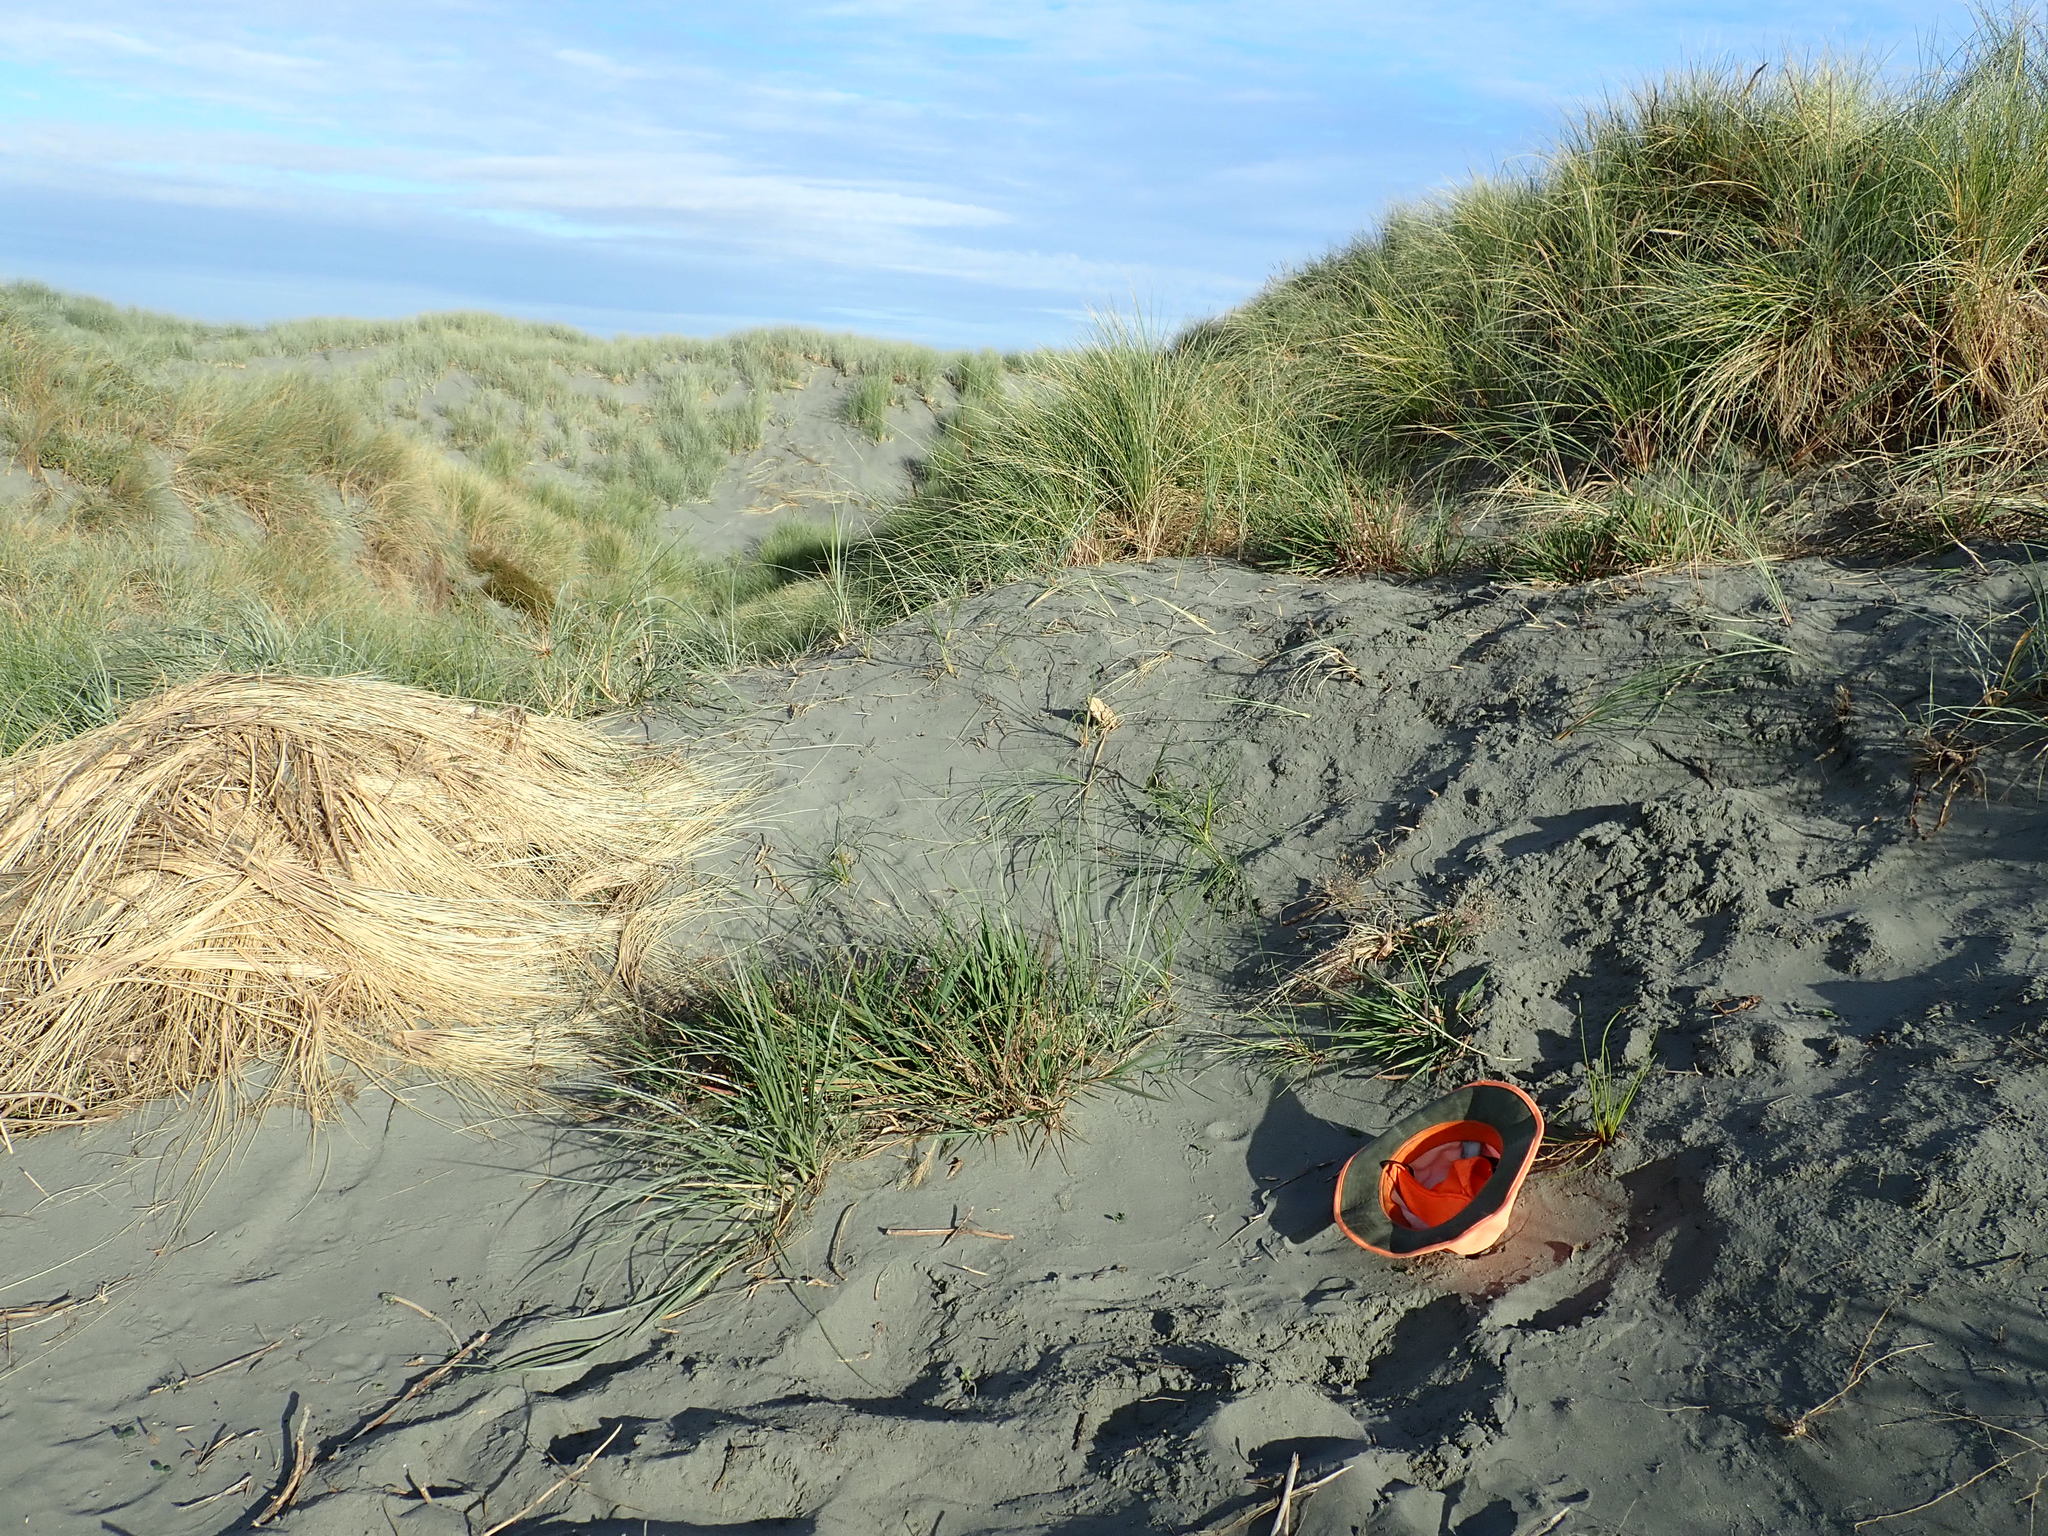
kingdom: Plantae
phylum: Tracheophyta
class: Liliopsida
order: Poales
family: Cyperaceae
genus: Ficinia
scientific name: Ficinia nodosa
